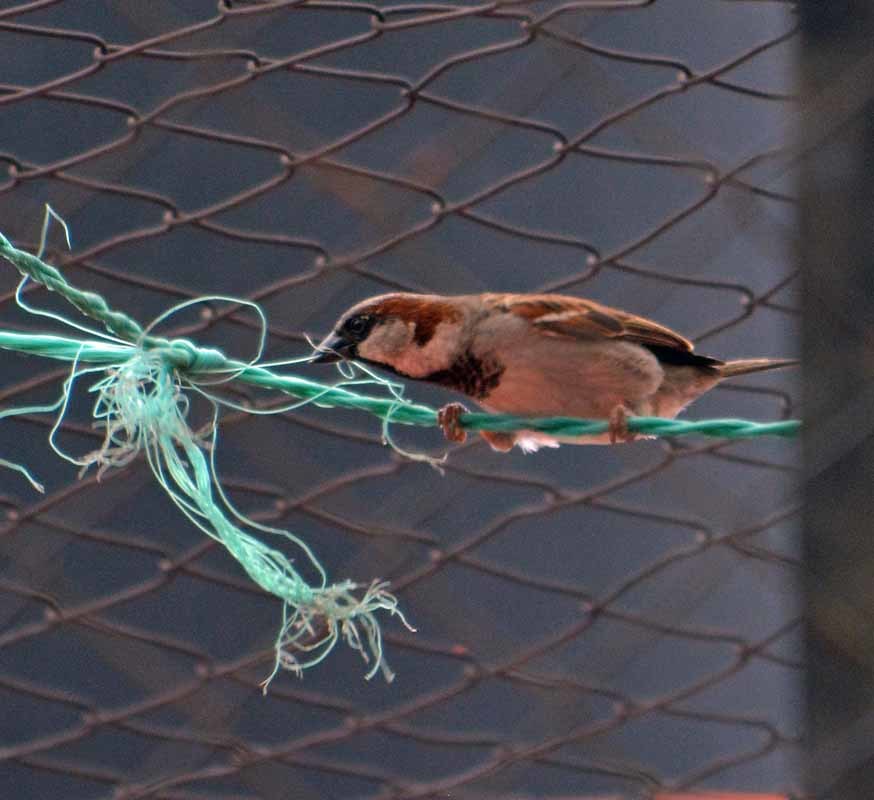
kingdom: Animalia
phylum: Chordata
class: Aves
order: Passeriformes
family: Passeridae
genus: Passer
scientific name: Passer domesticus
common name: House sparrow
